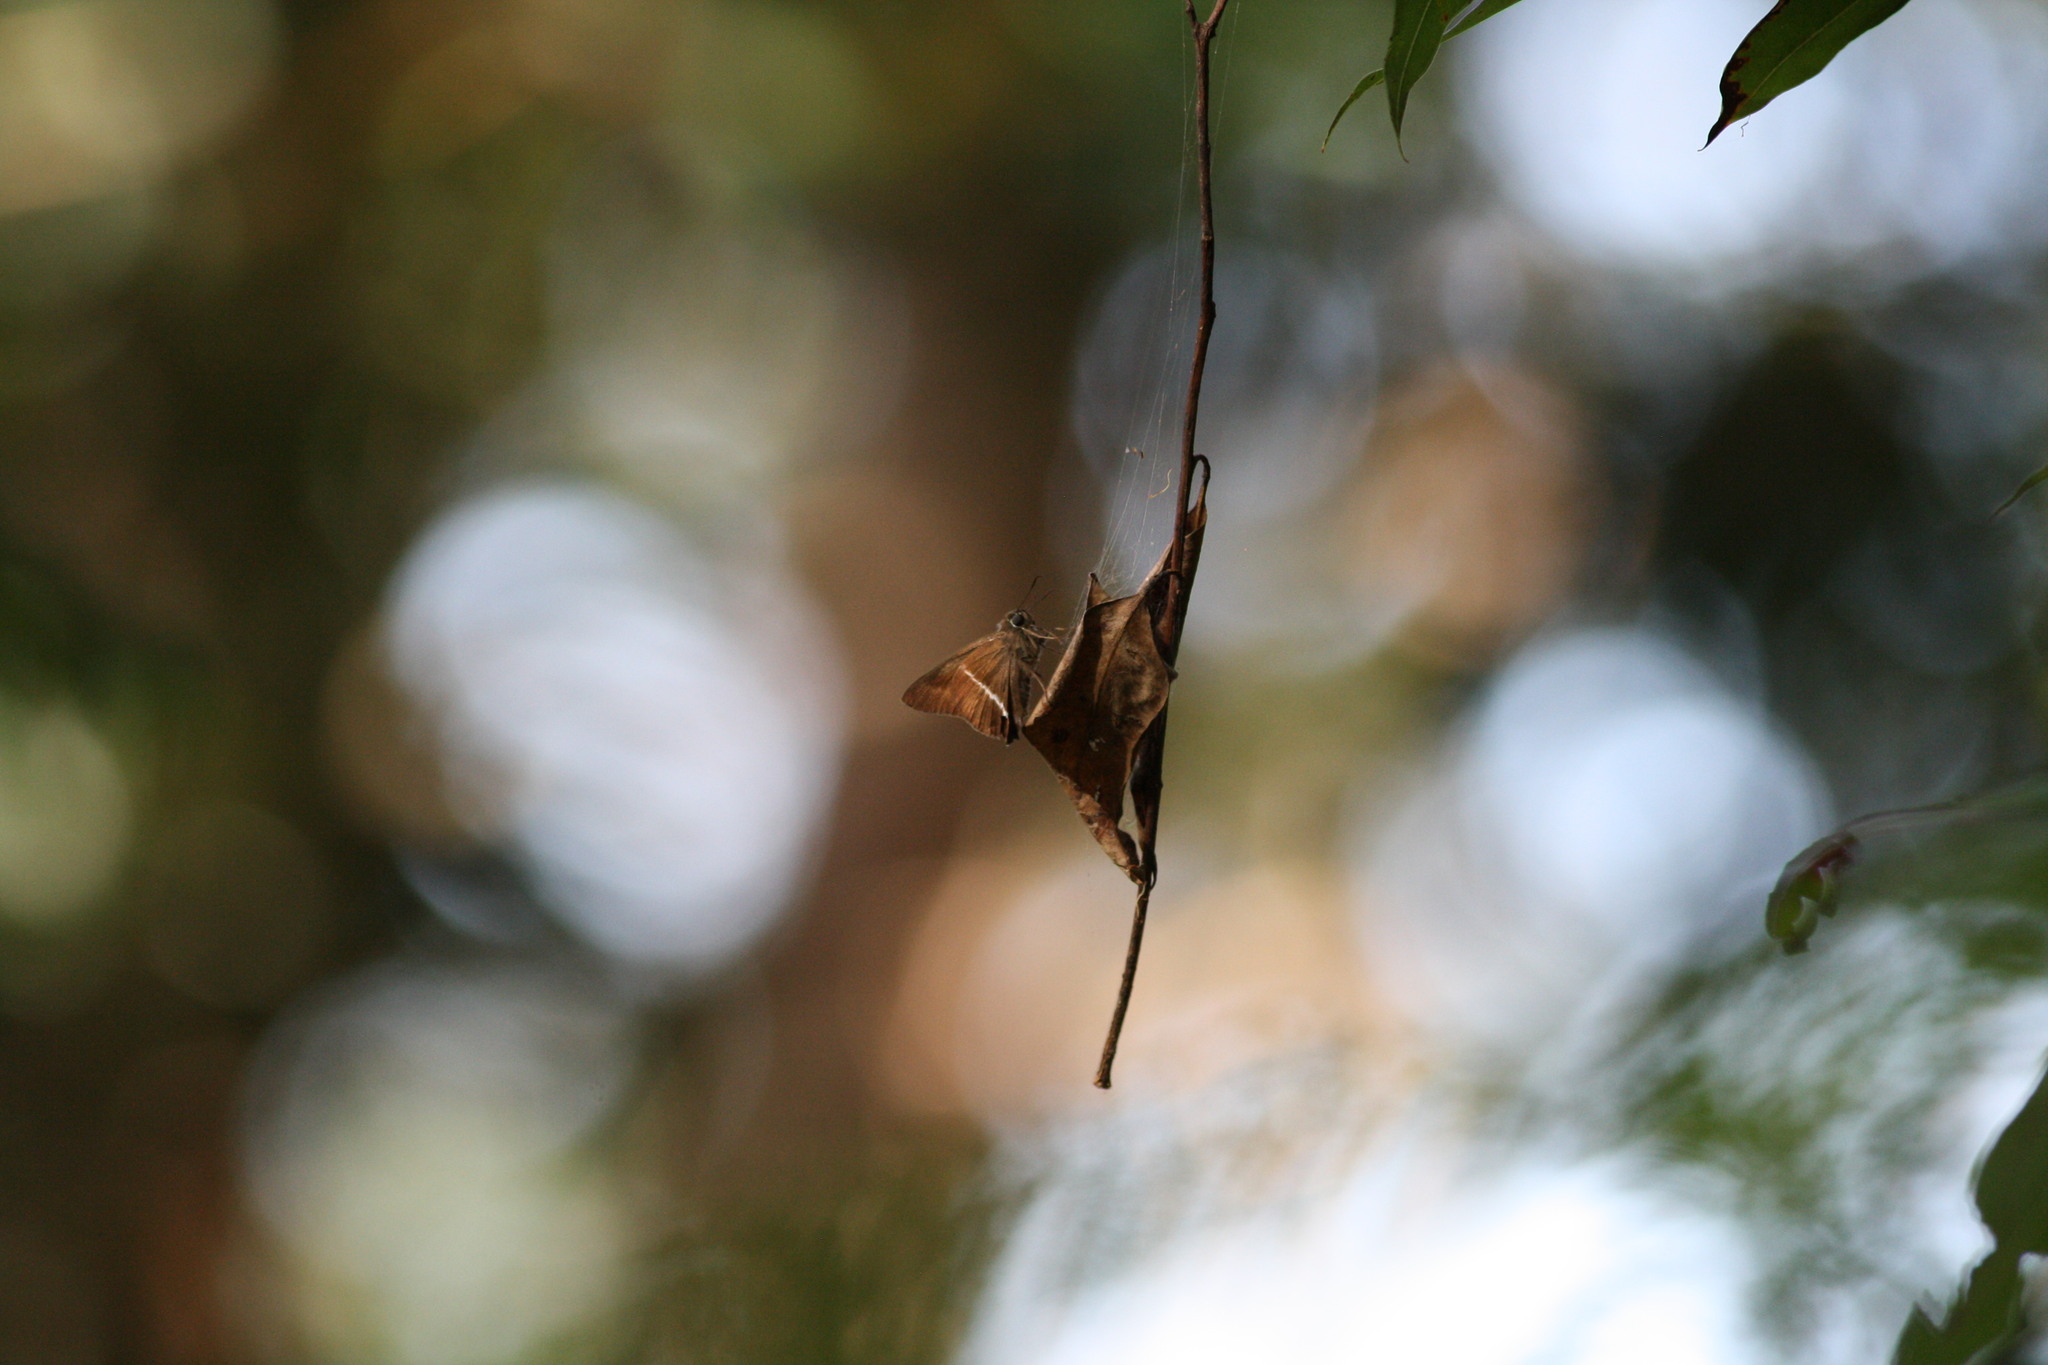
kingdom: Animalia
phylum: Arthropoda
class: Insecta
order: Lepidoptera
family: Hesperiidae
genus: Hasora
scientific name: Hasora khoda
